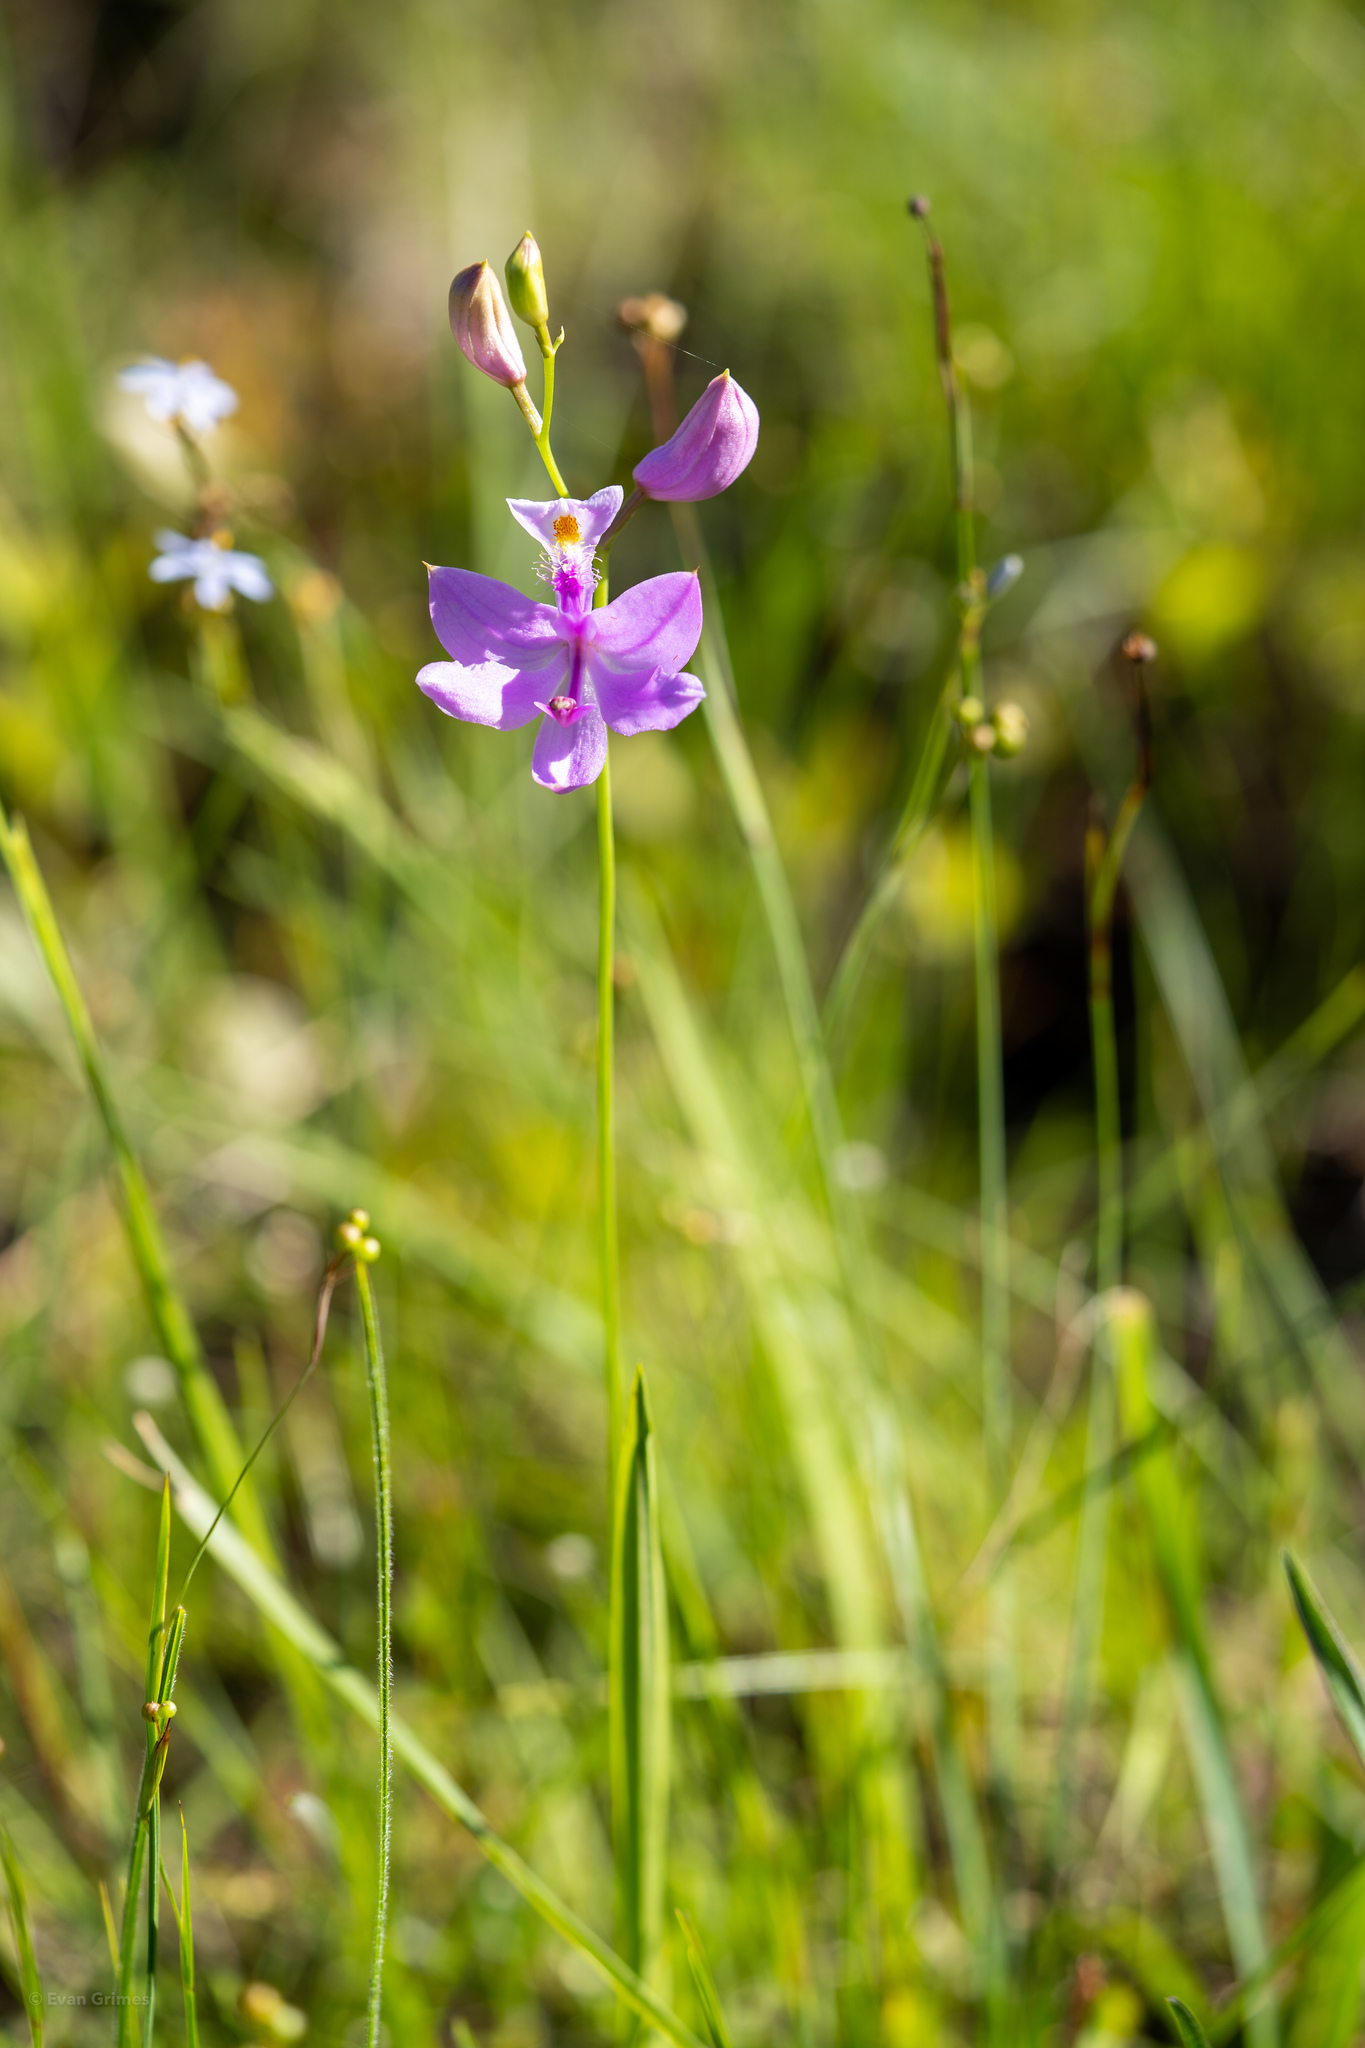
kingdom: Plantae
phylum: Tracheophyta
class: Liliopsida
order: Asparagales
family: Orchidaceae
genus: Calopogon
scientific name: Calopogon tuberosus
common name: Grass-pink
